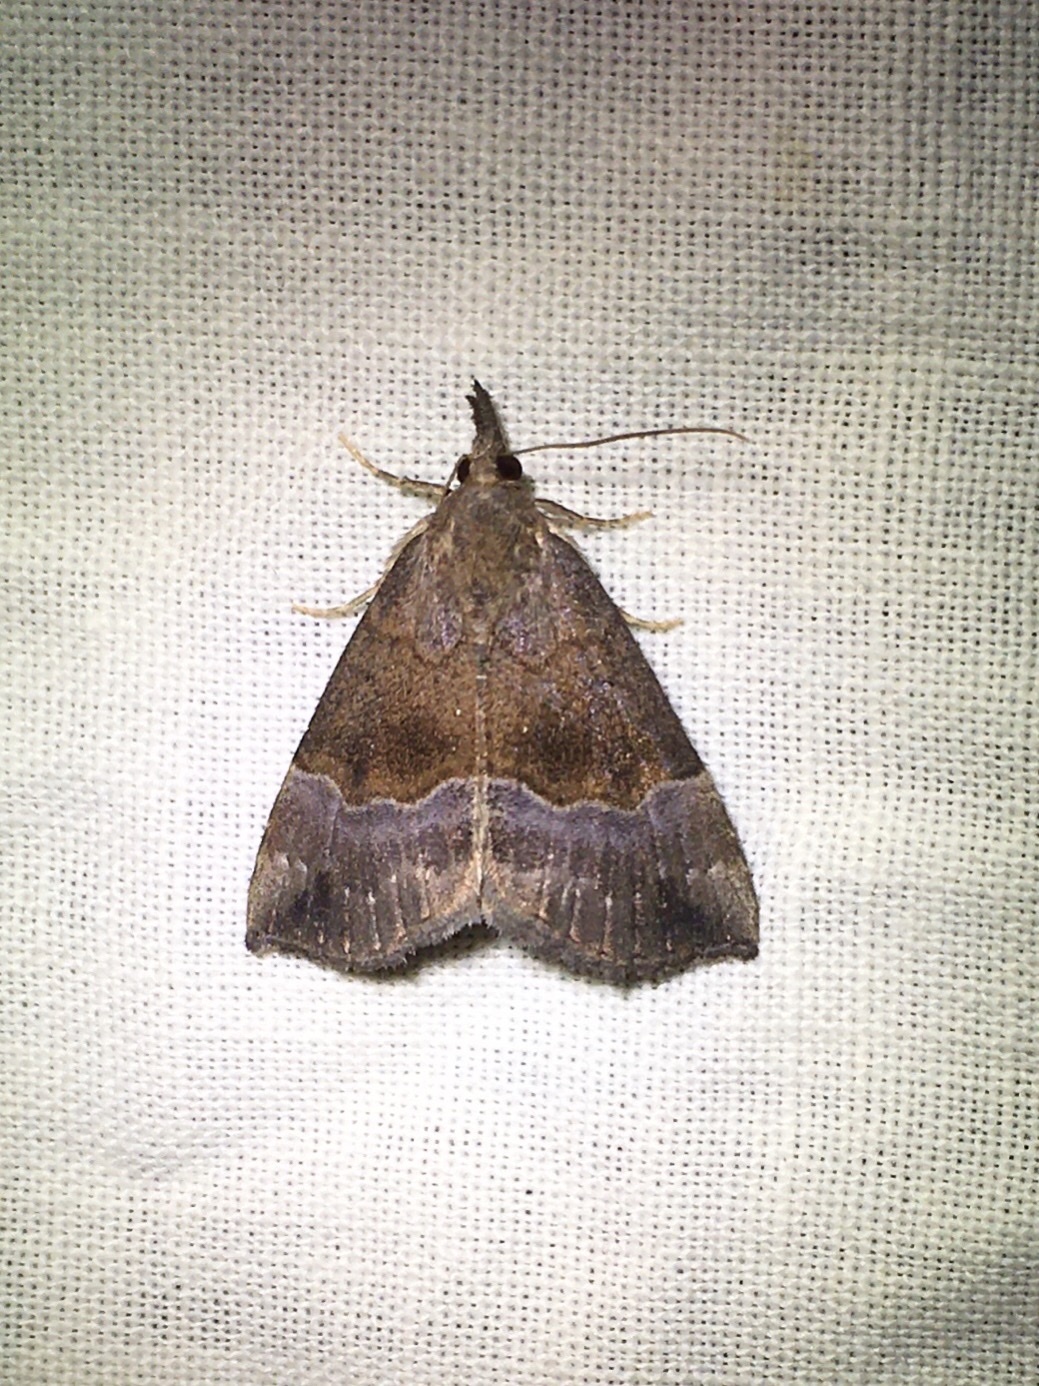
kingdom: Animalia
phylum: Arthropoda
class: Insecta
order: Lepidoptera
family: Erebidae
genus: Hypena
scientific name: Hypena madefactalis
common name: Gray-edged snout
